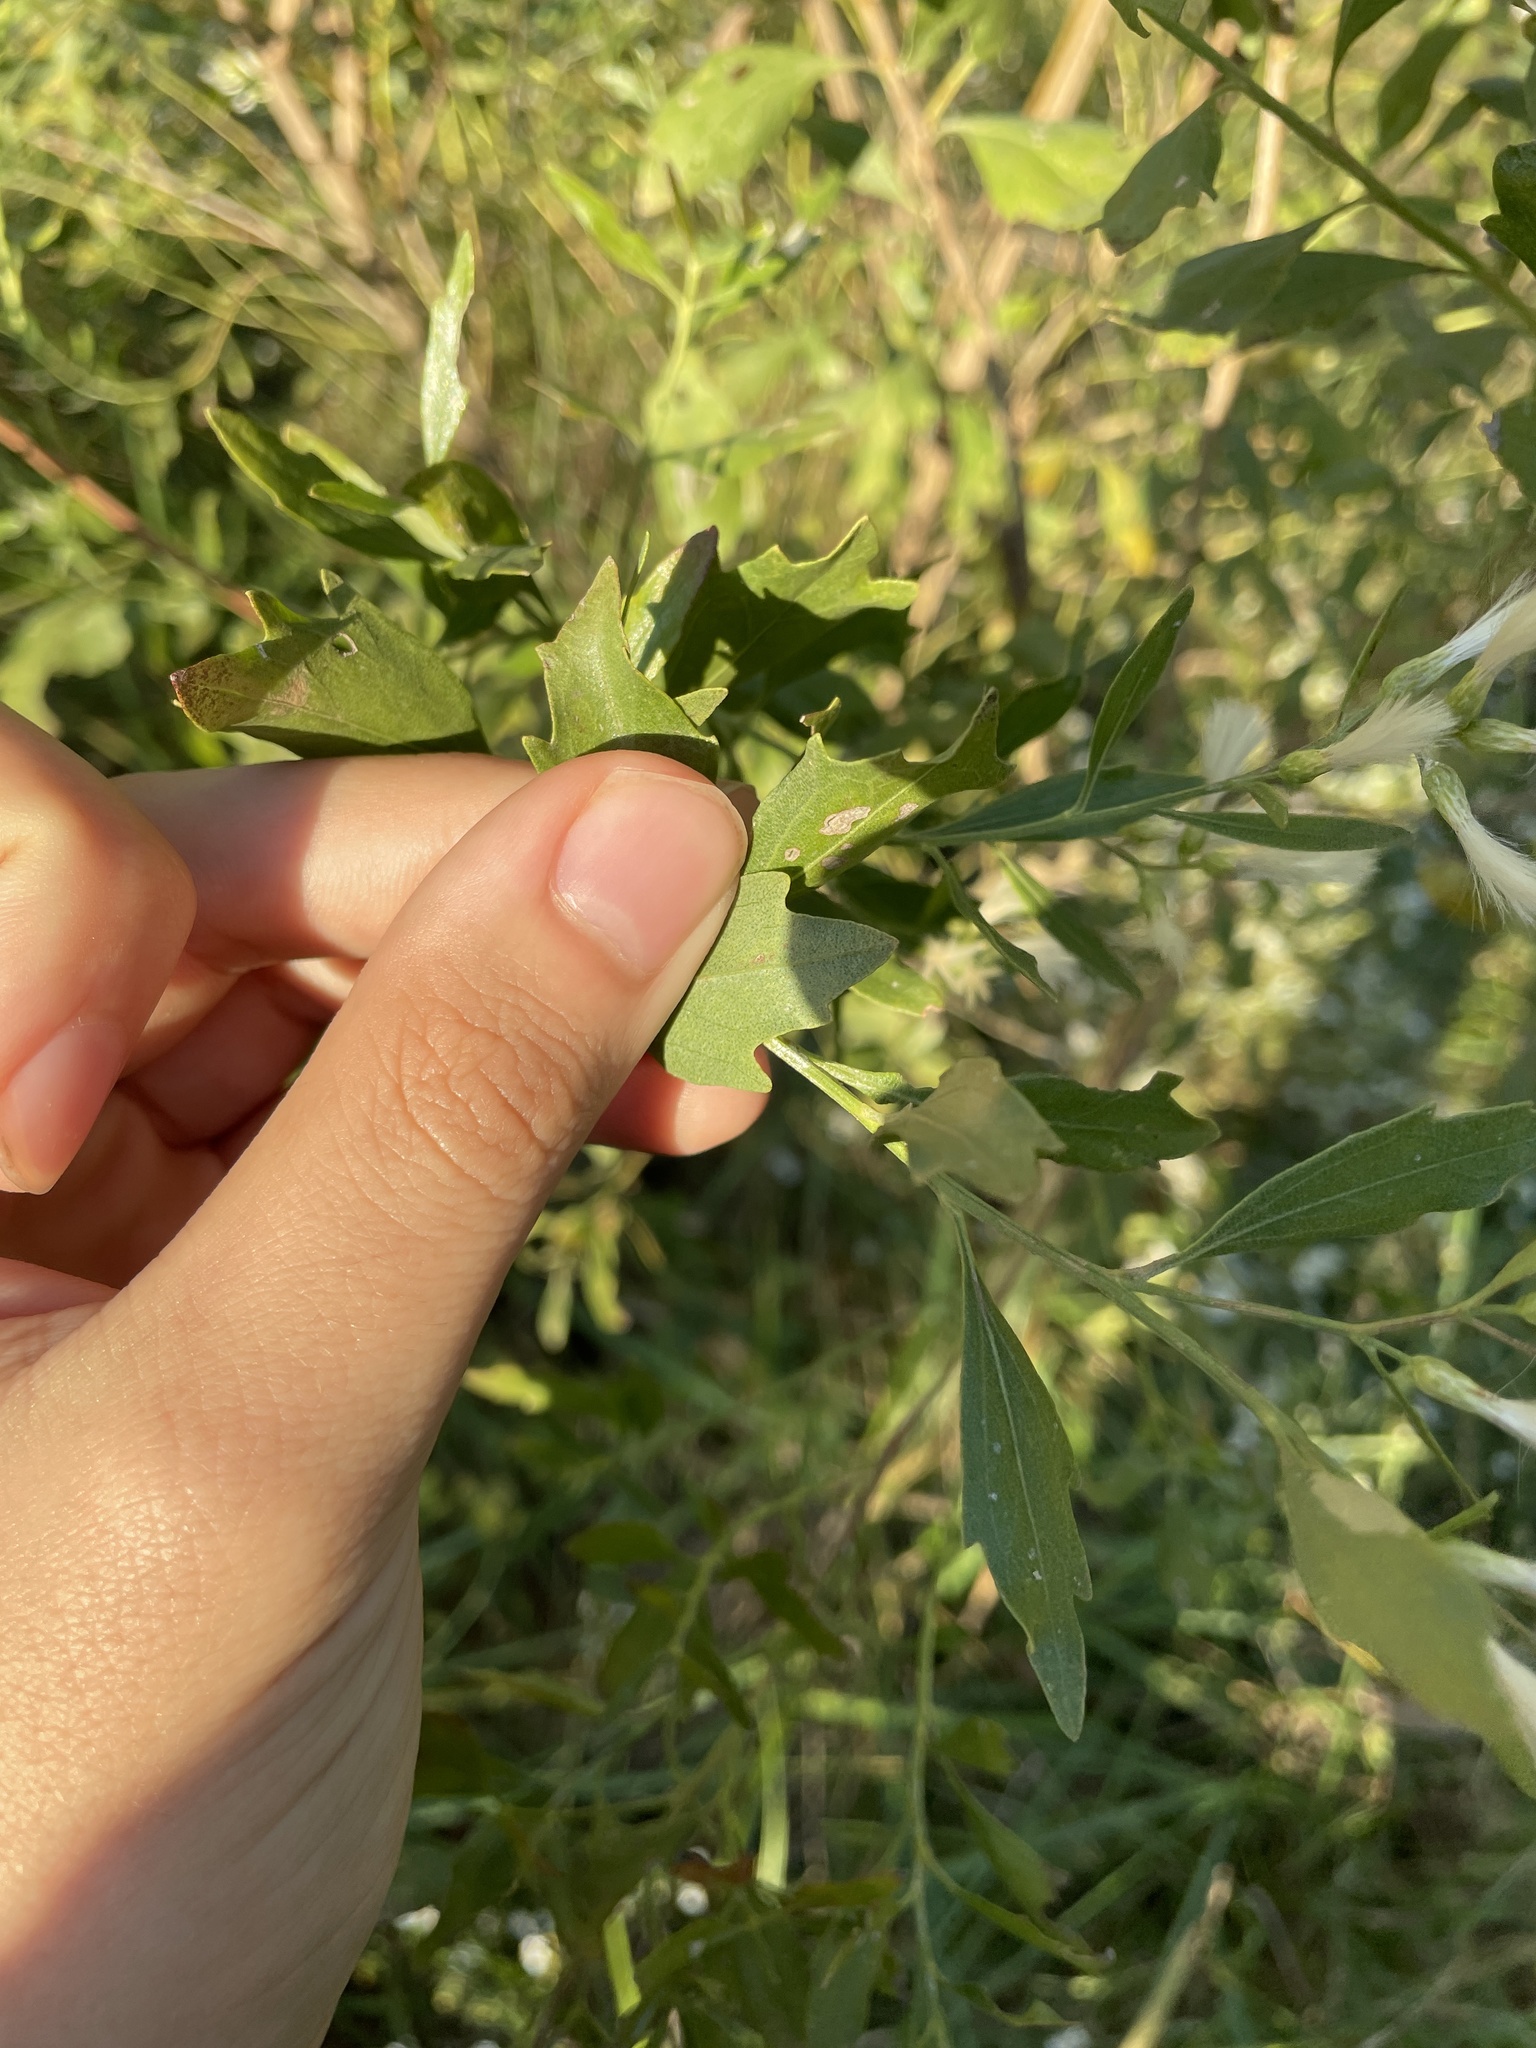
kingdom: Plantae
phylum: Tracheophyta
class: Magnoliopsida
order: Asterales
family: Asteraceae
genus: Baccharis
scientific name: Baccharis halimifolia
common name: Eastern baccharis
